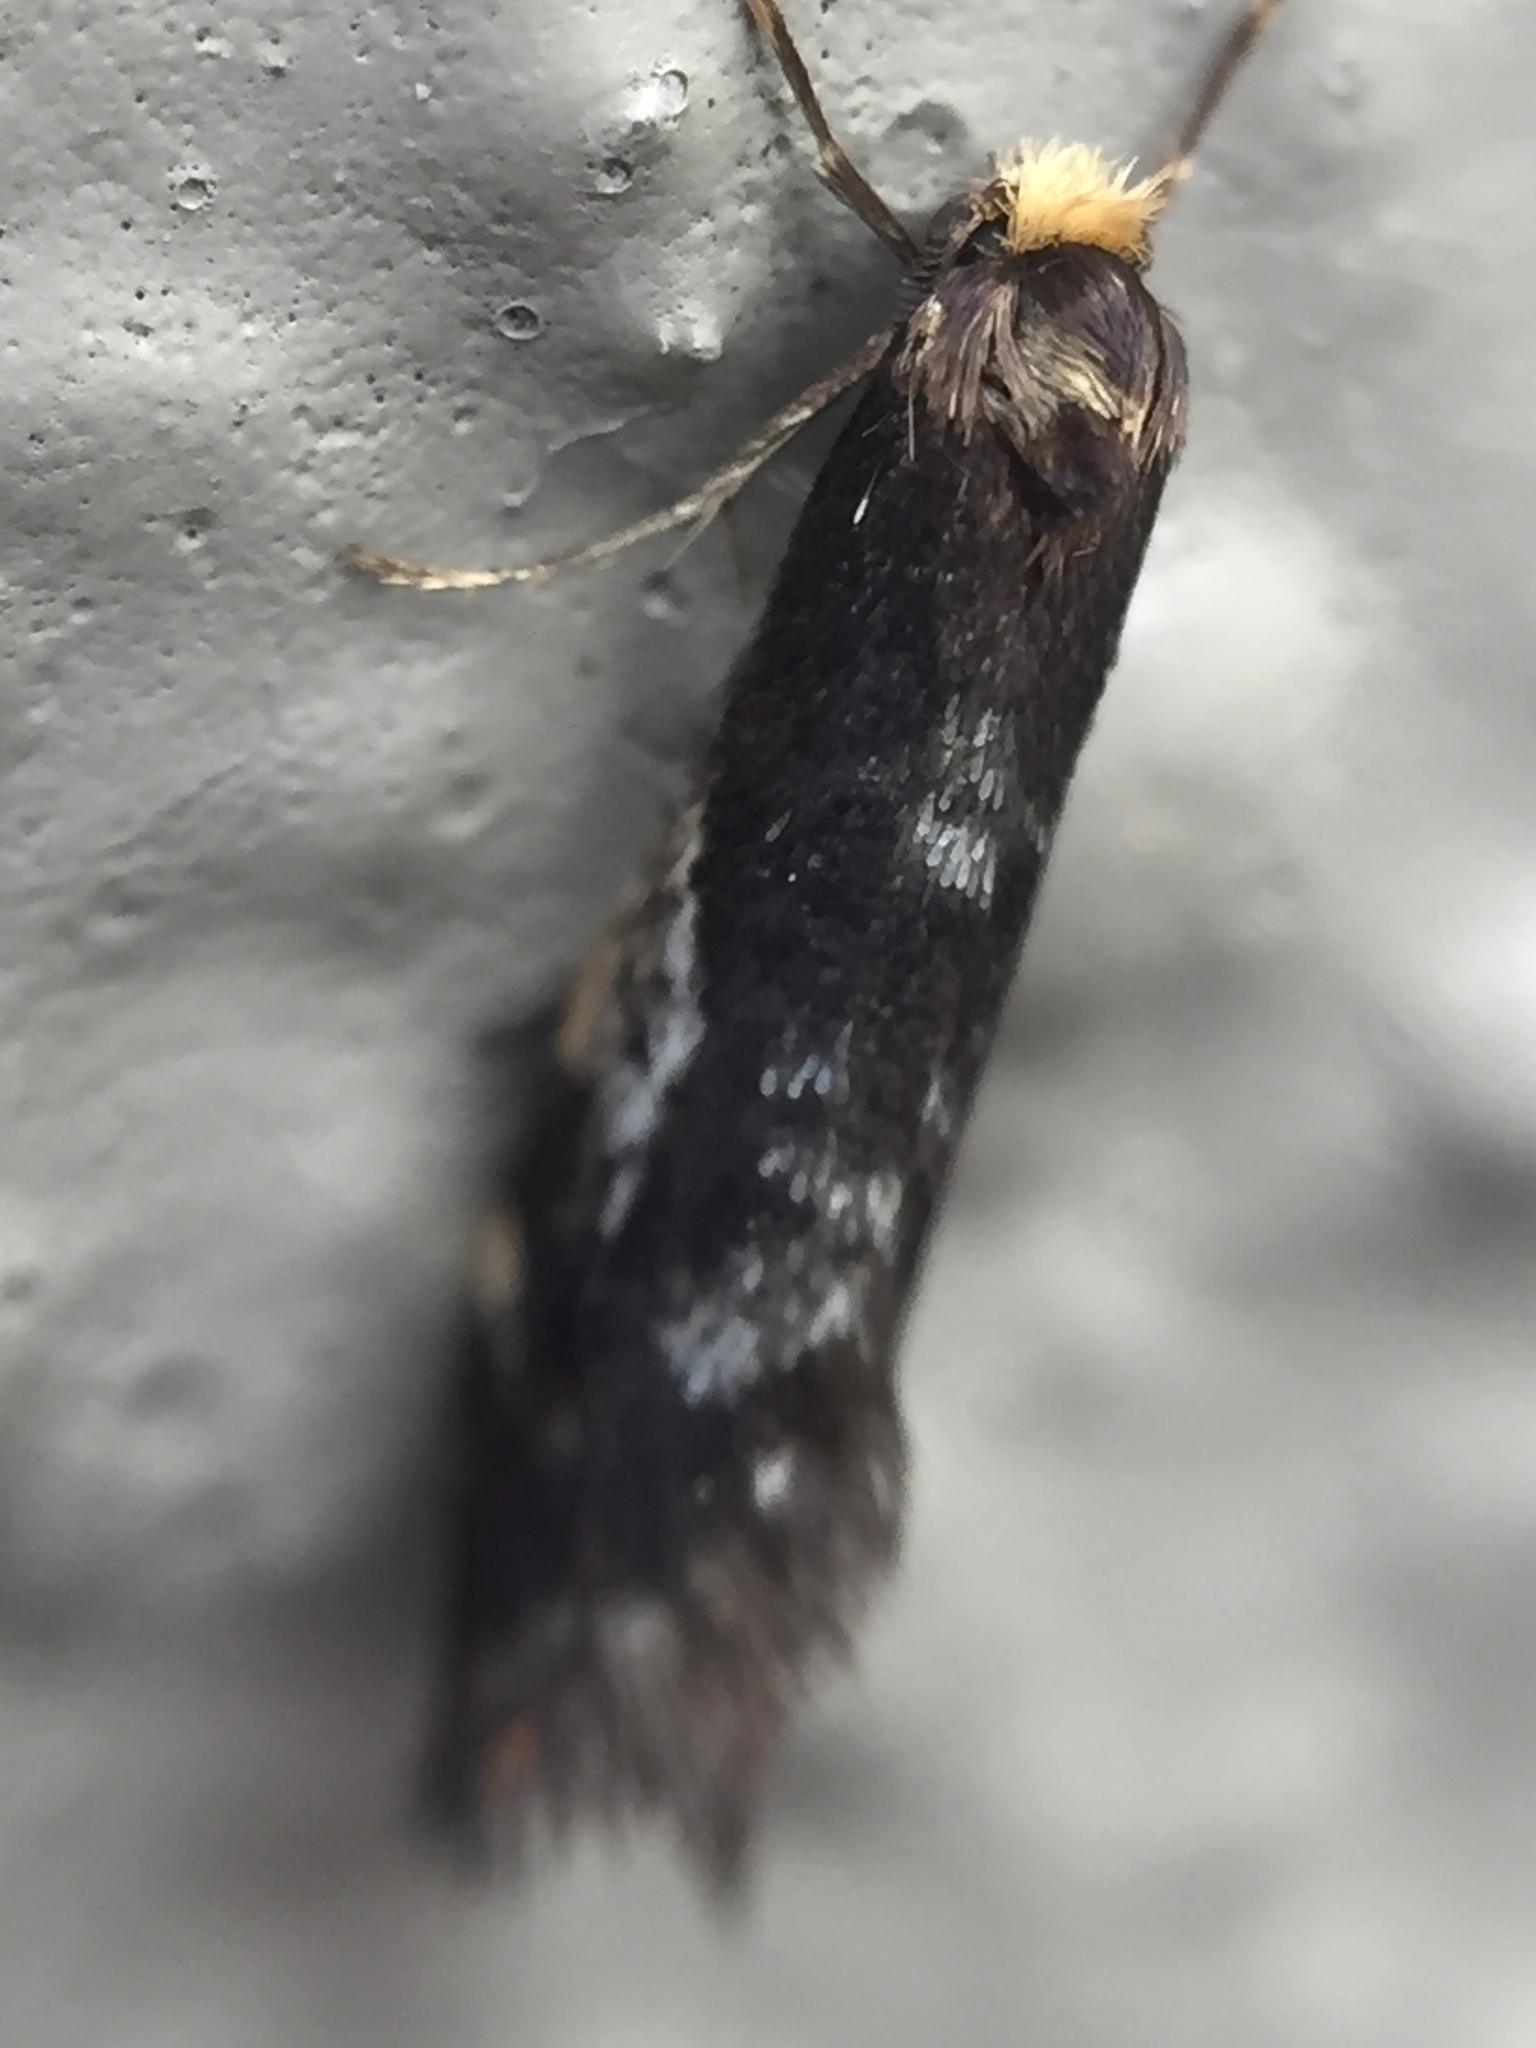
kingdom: Animalia
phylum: Arthropoda
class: Insecta
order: Lepidoptera
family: Psychidae
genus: Lepidoscia
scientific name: Lepidoscia lainodes
